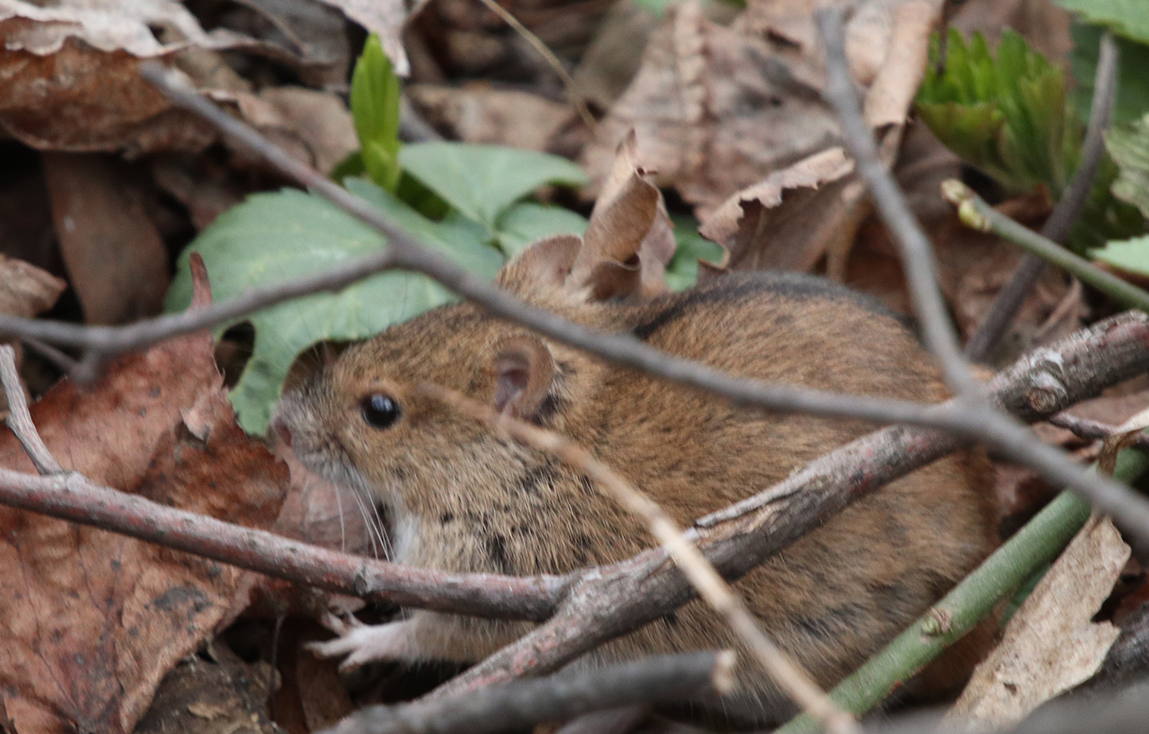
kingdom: Animalia
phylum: Chordata
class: Mammalia
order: Rodentia
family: Muridae
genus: Apodemus
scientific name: Apodemus agrarius
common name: Striped field mouse
